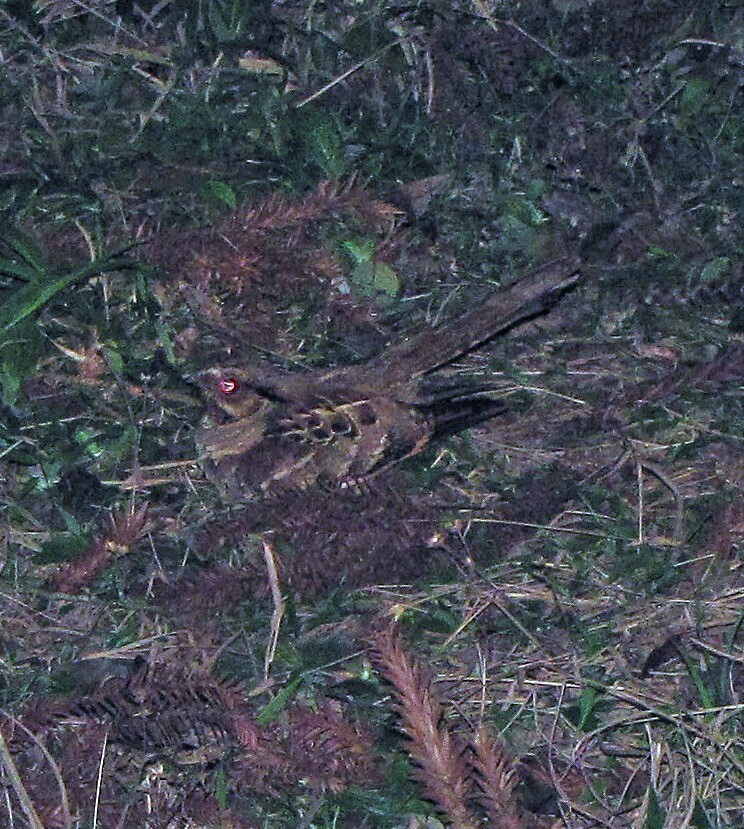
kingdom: Animalia
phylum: Chordata
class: Aves
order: Caprimulgiformes
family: Caprimulgidae
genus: Nyctidromus
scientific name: Nyctidromus albicollis
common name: Pauraque
